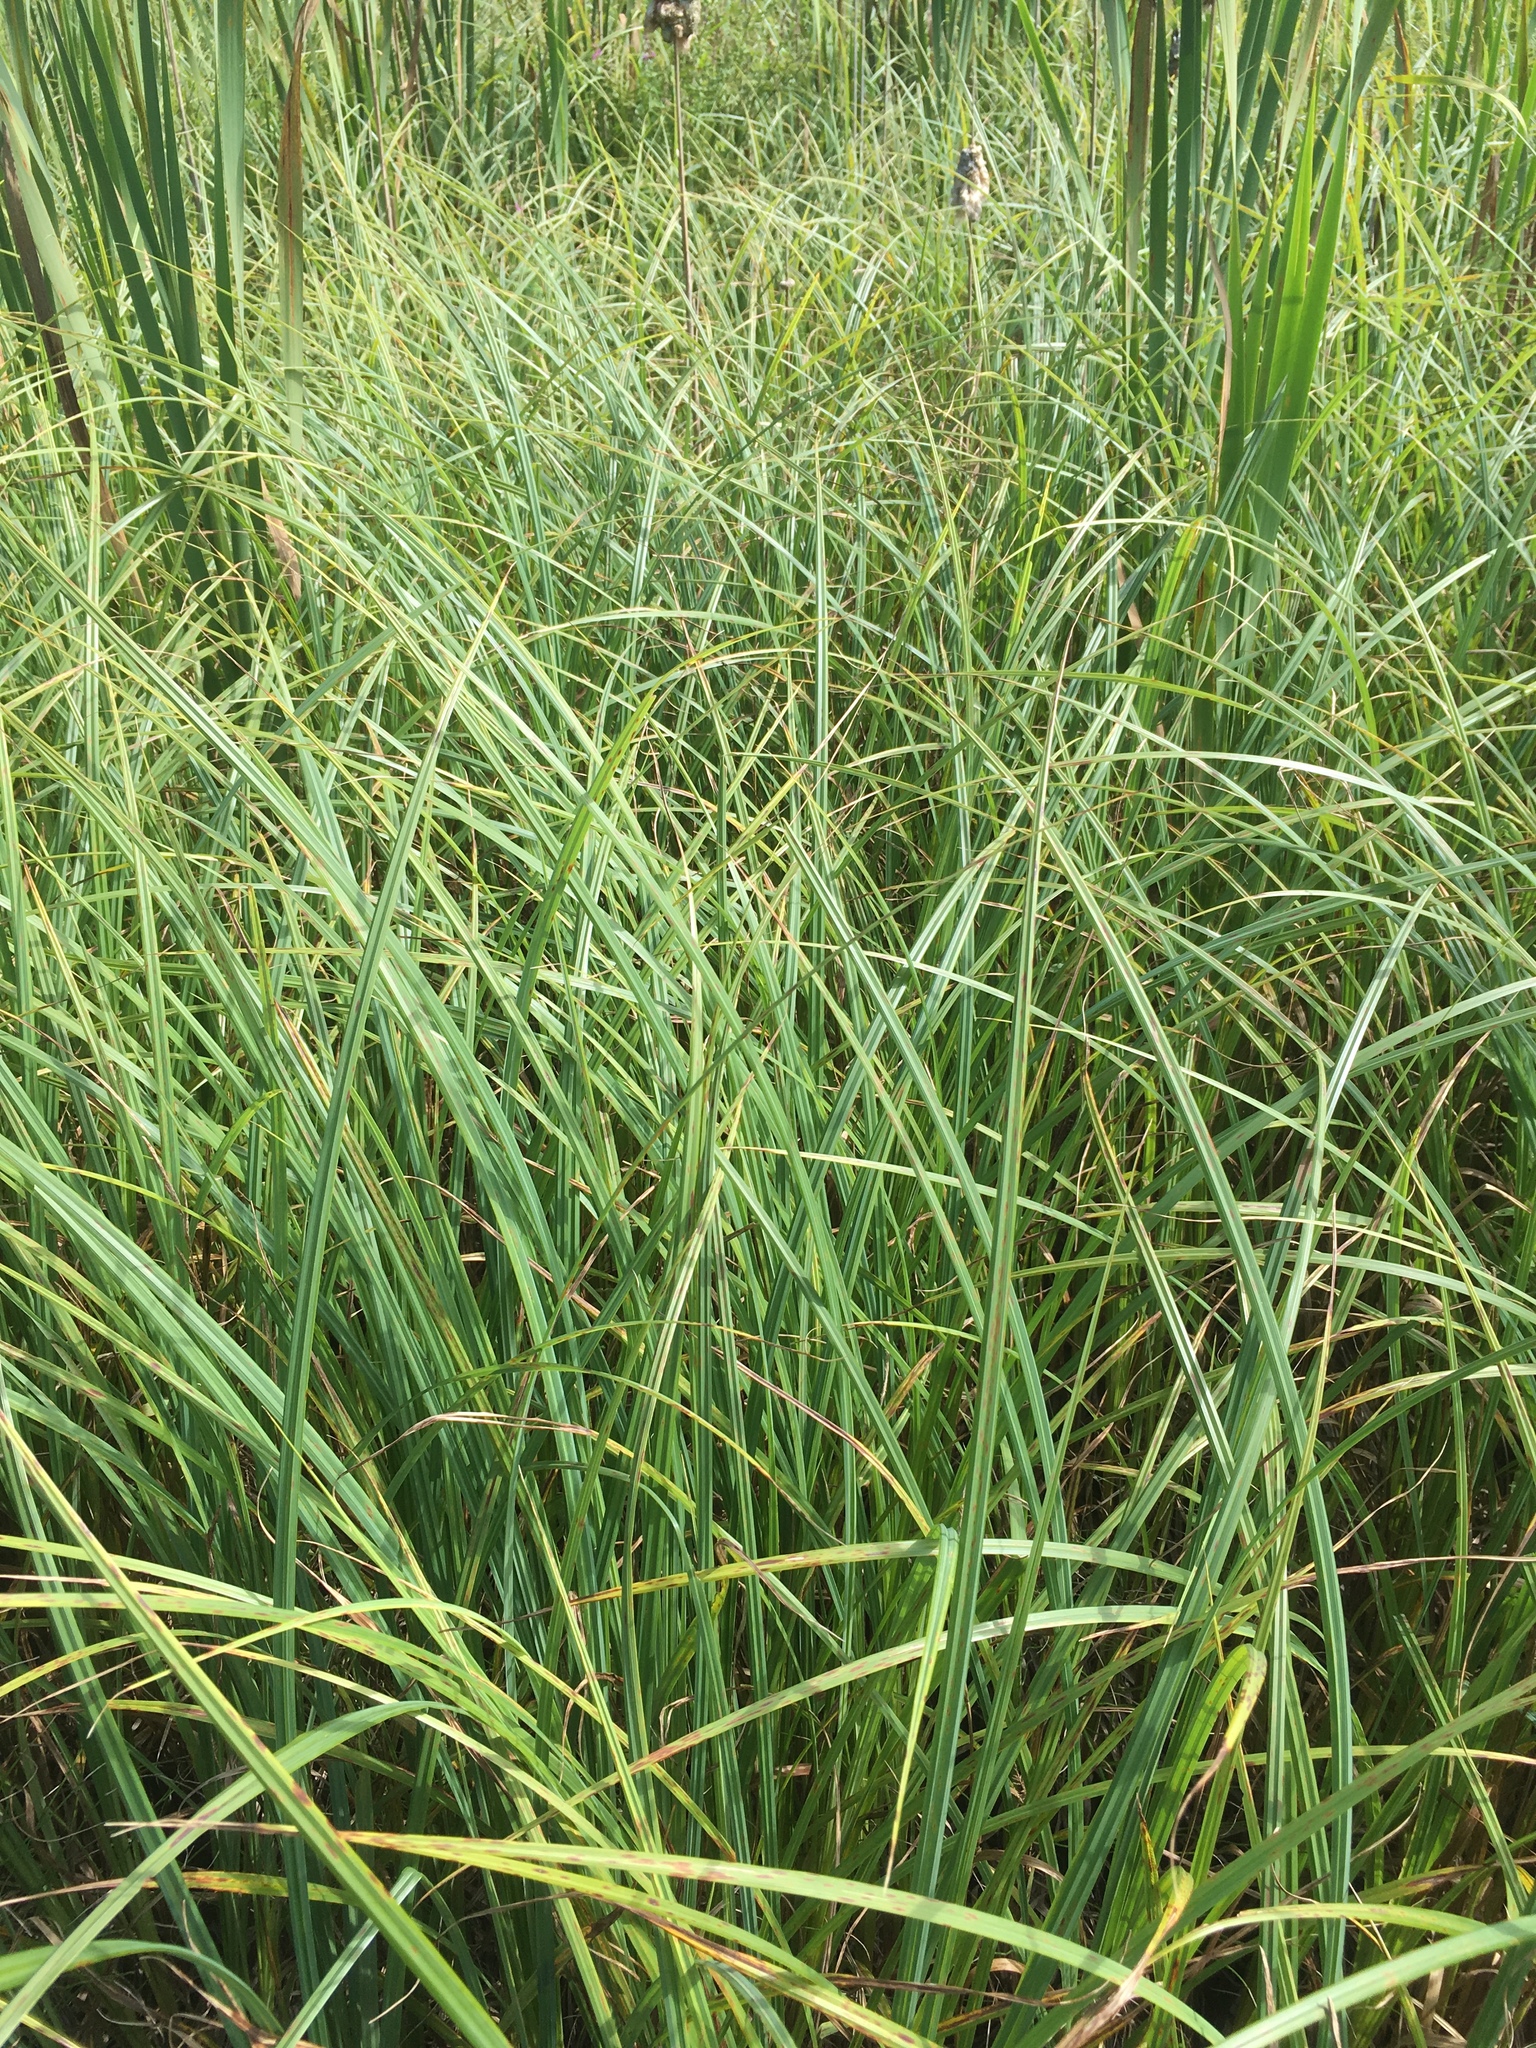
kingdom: Plantae
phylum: Tracheophyta
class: Liliopsida
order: Poales
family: Cyperaceae
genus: Carex
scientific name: Carex lacustris
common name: Common lake sedge
